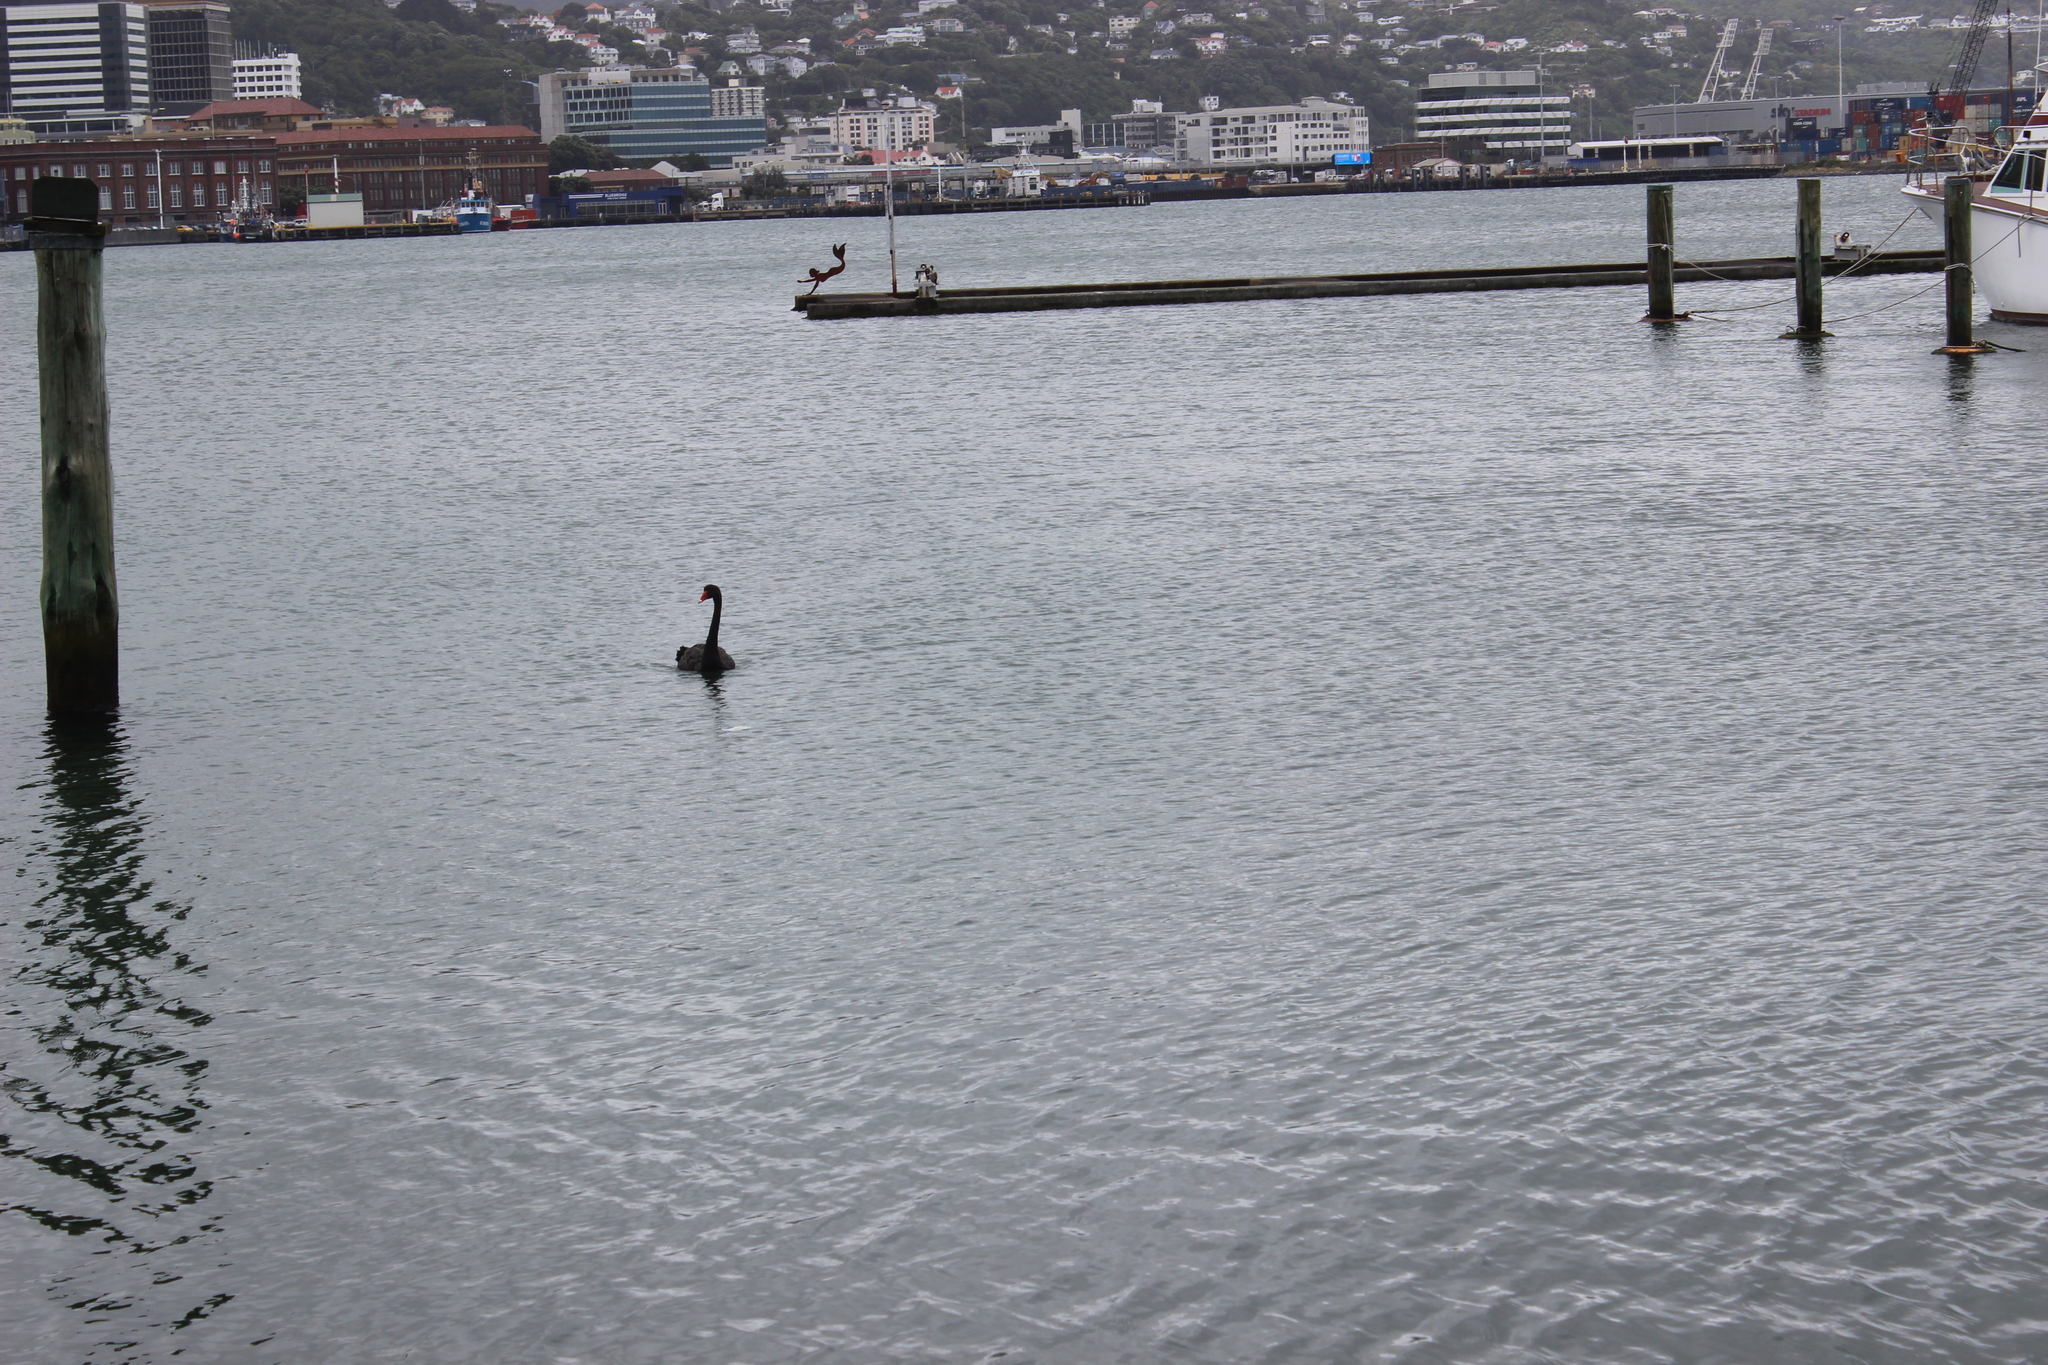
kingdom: Animalia
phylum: Chordata
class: Aves
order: Anseriformes
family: Anatidae
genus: Cygnus
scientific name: Cygnus atratus
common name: Black swan
